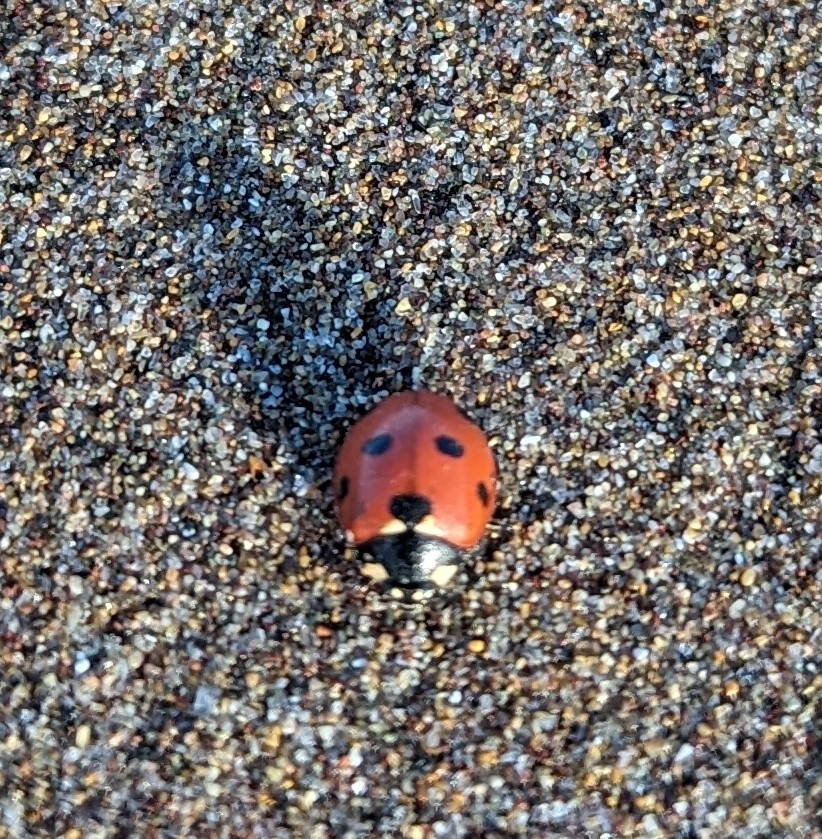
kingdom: Animalia
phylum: Arthropoda
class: Insecta
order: Coleoptera
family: Coccinellidae
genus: Coccinella
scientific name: Coccinella algerica
